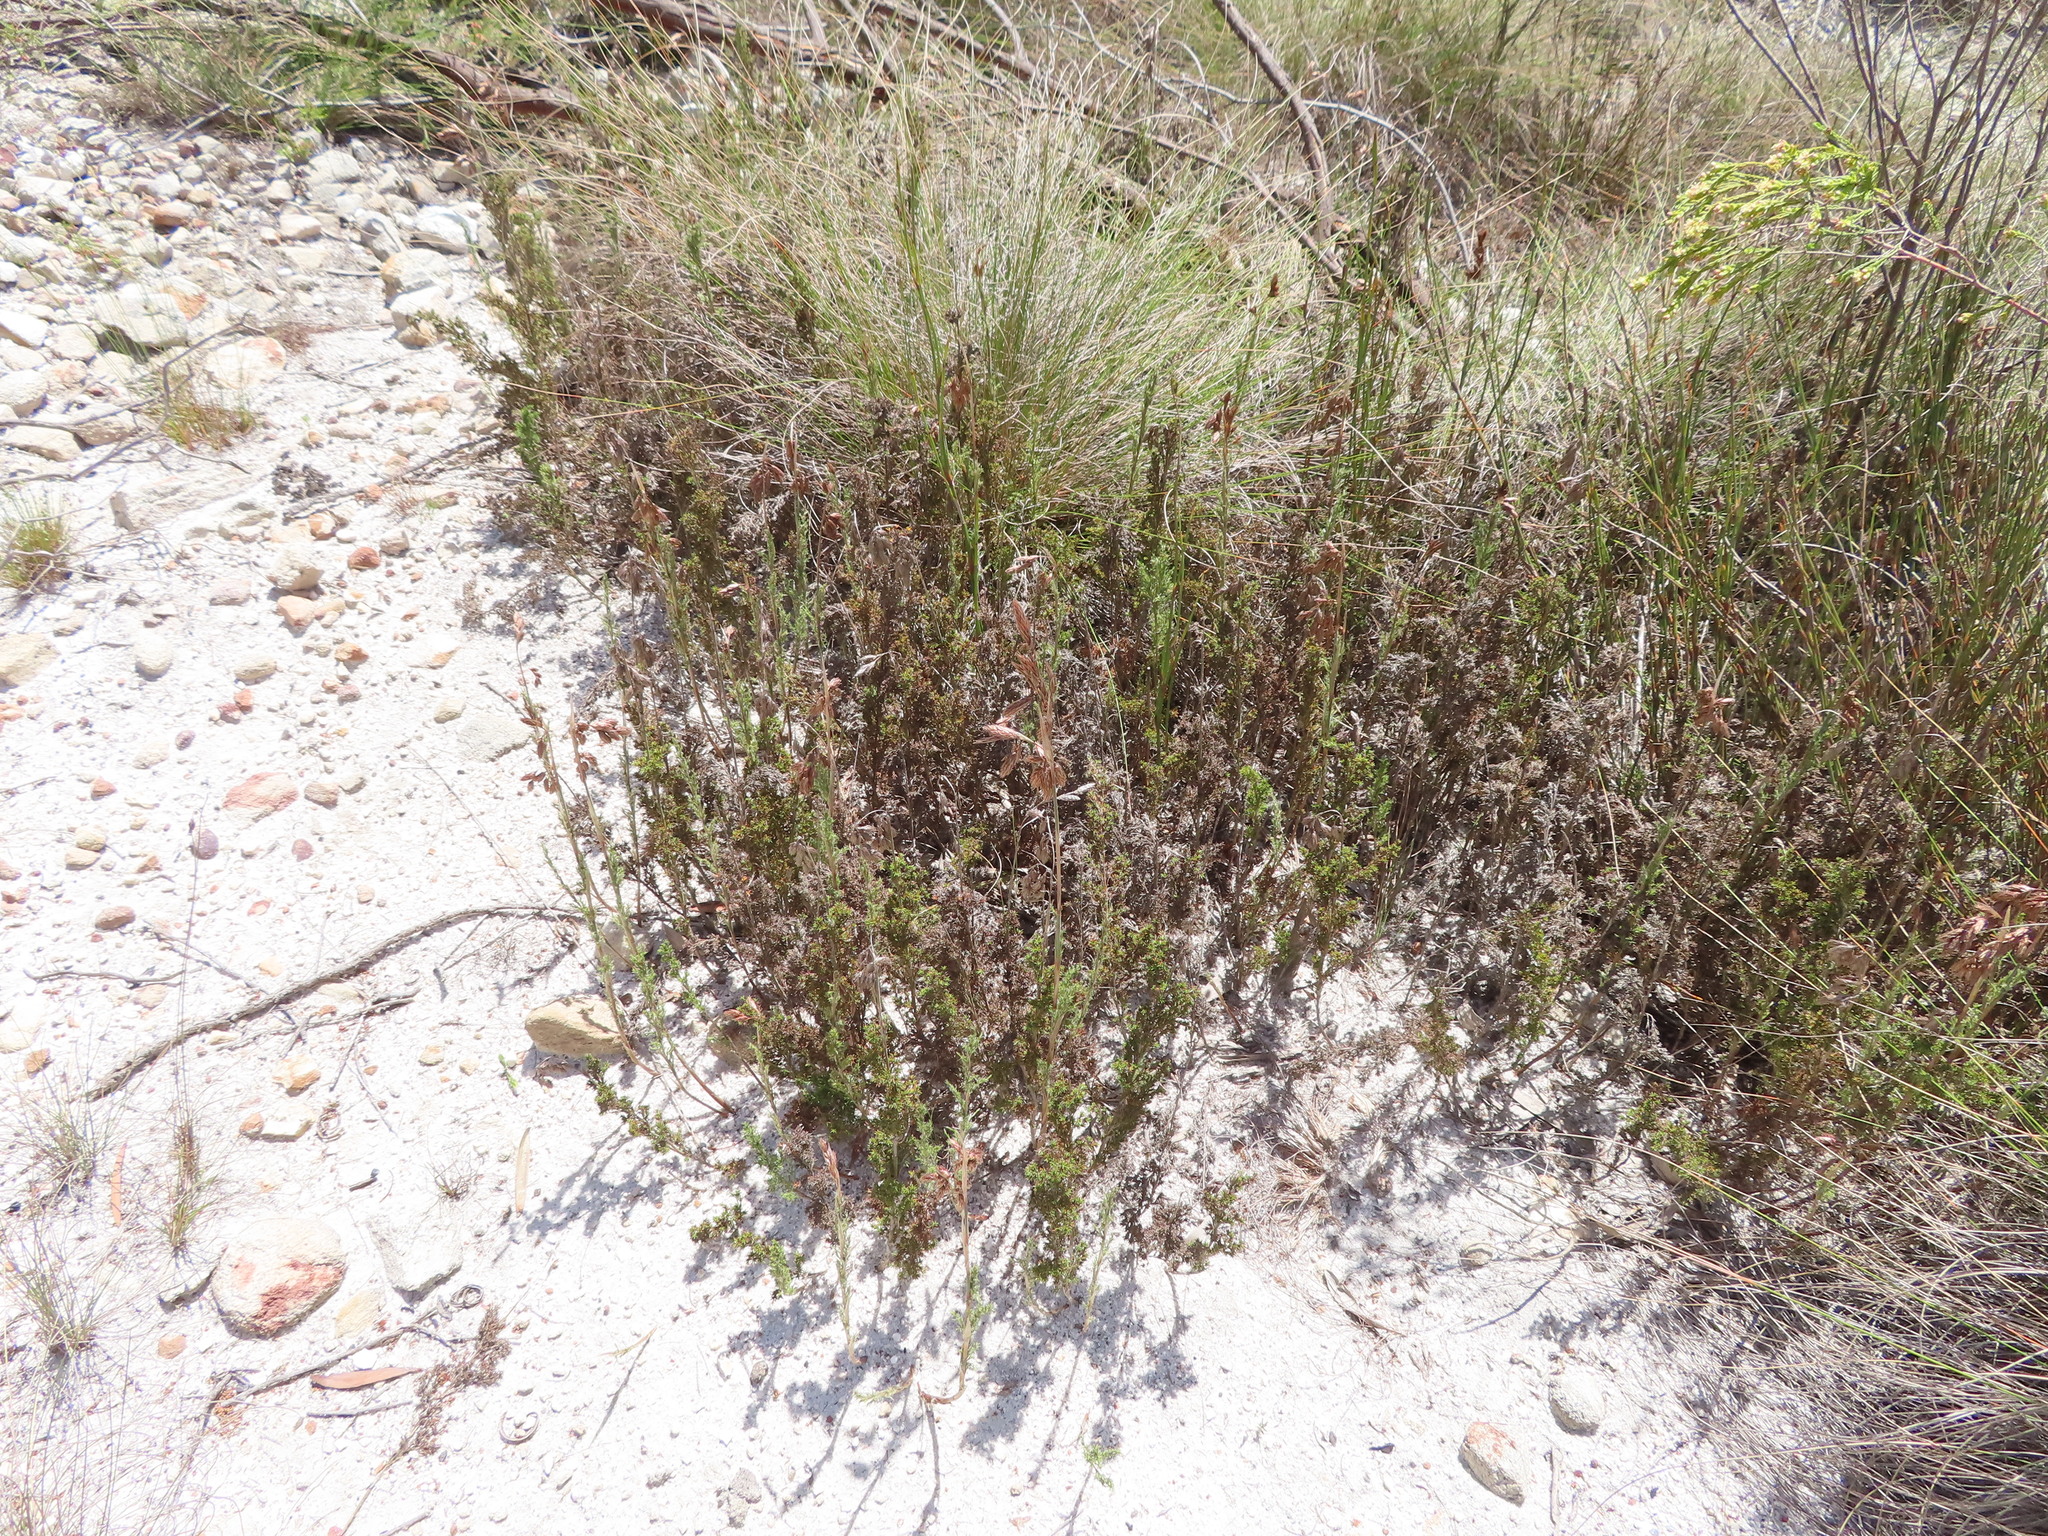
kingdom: Plantae
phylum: Tracheophyta
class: Liliopsida
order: Poales
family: Restionaceae
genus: Thamnochortus
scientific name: Thamnochortus fruticosus
